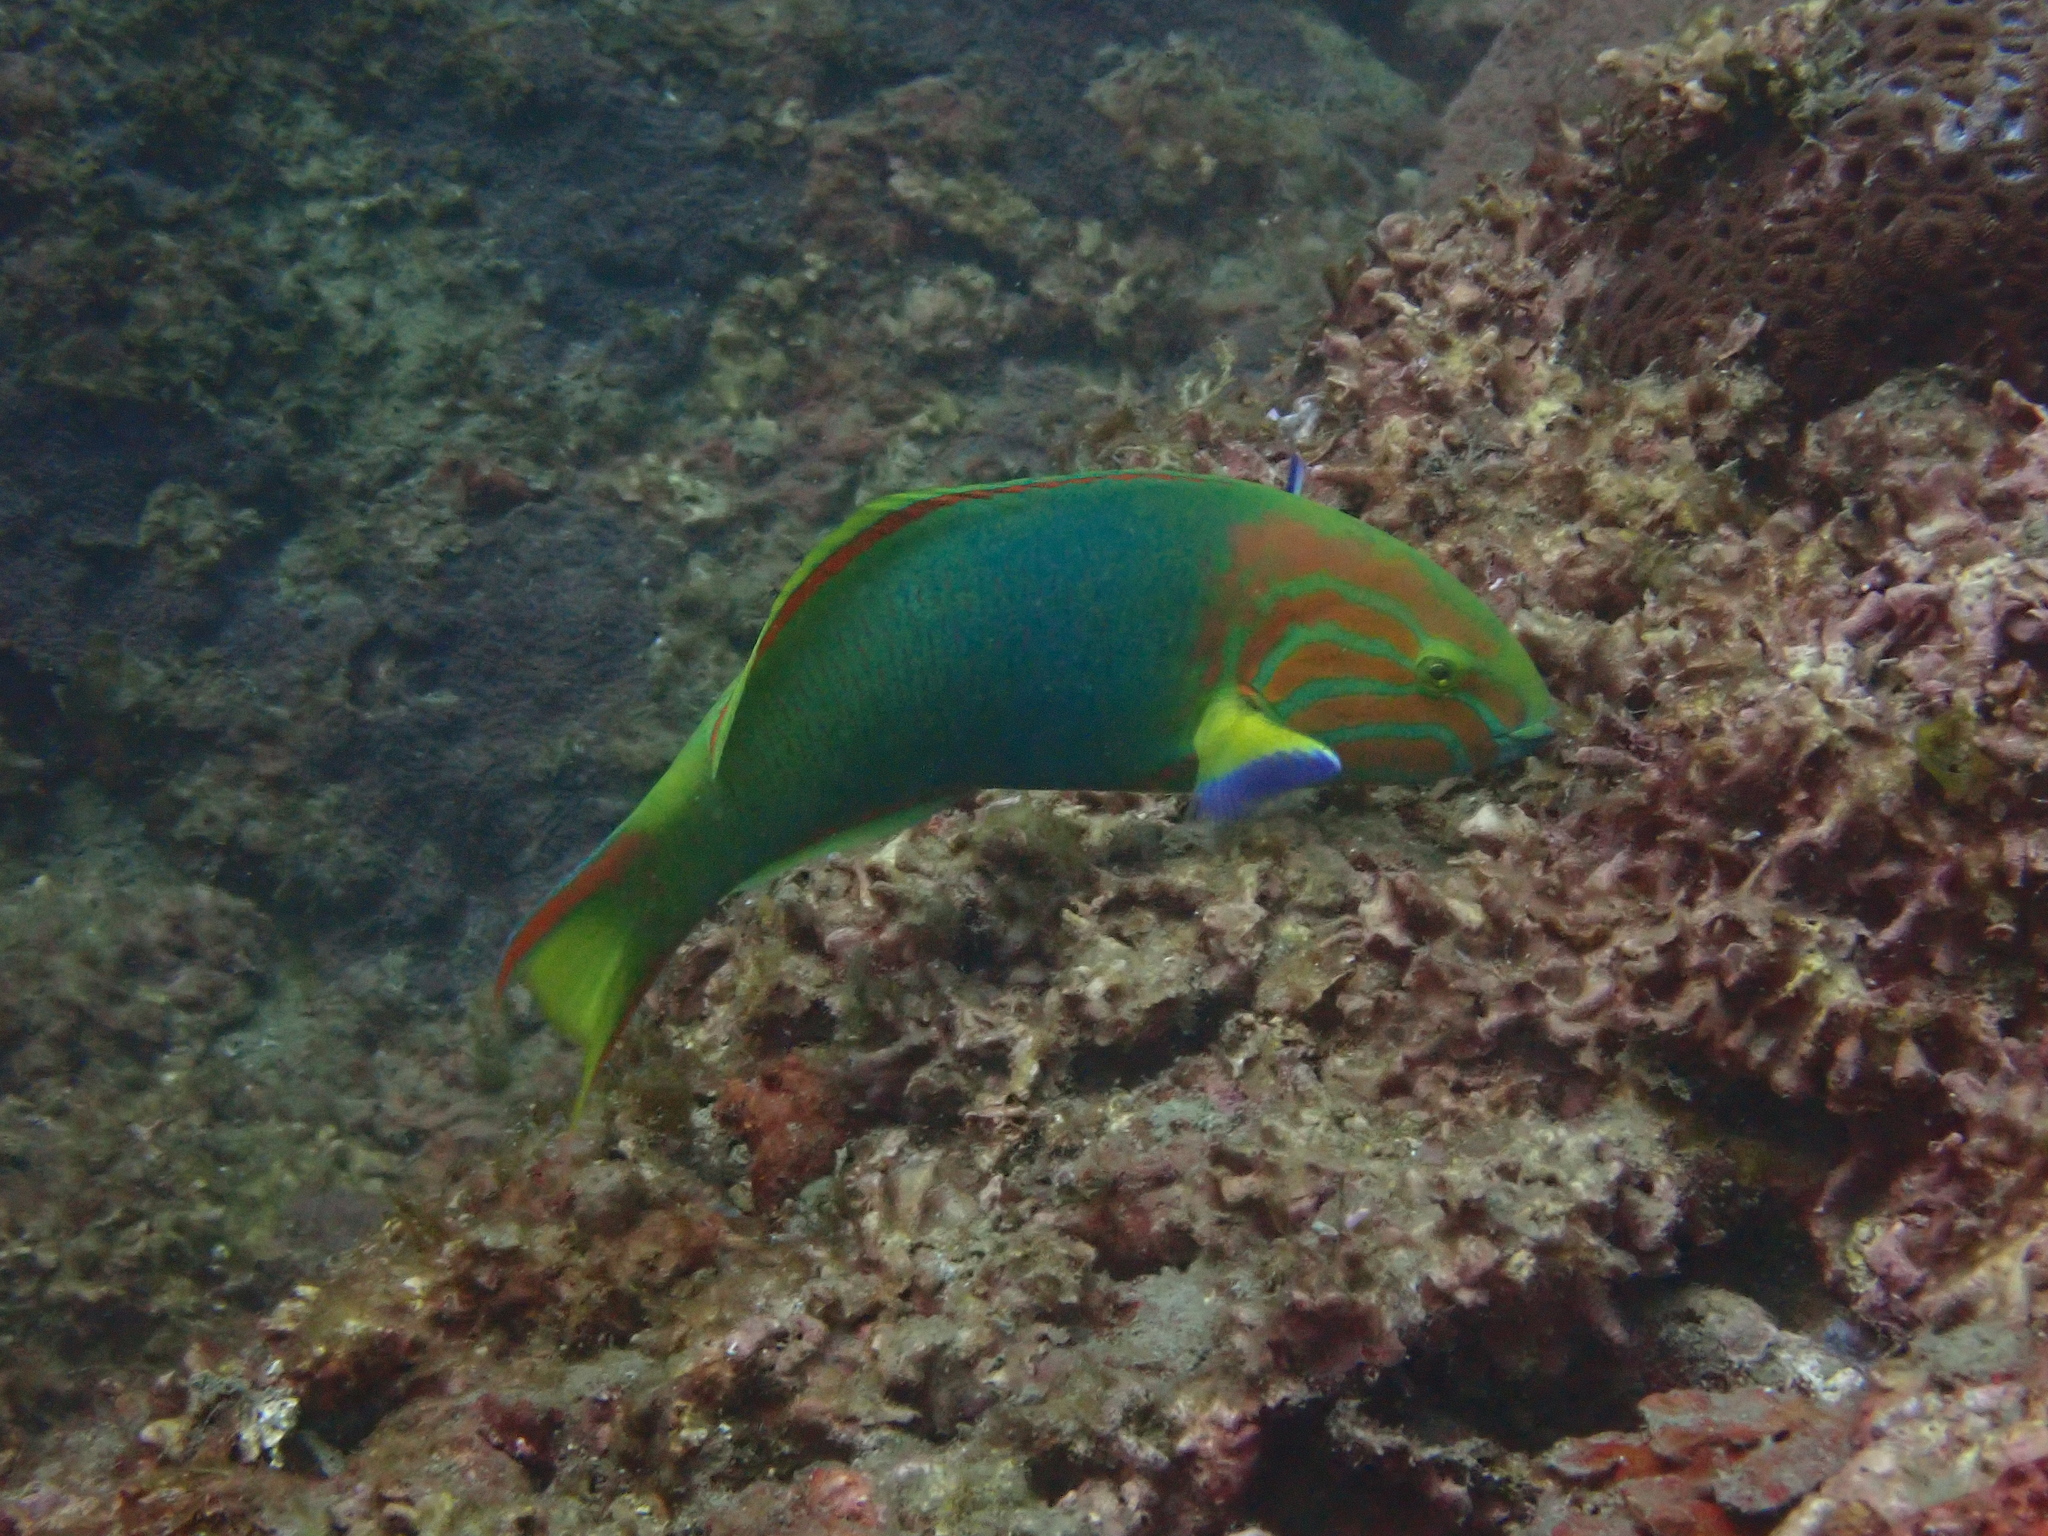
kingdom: Animalia
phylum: Chordata
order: Perciformes
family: Labridae
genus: Thalassoma
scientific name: Thalassoma lutescens
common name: Green moon wrasse
